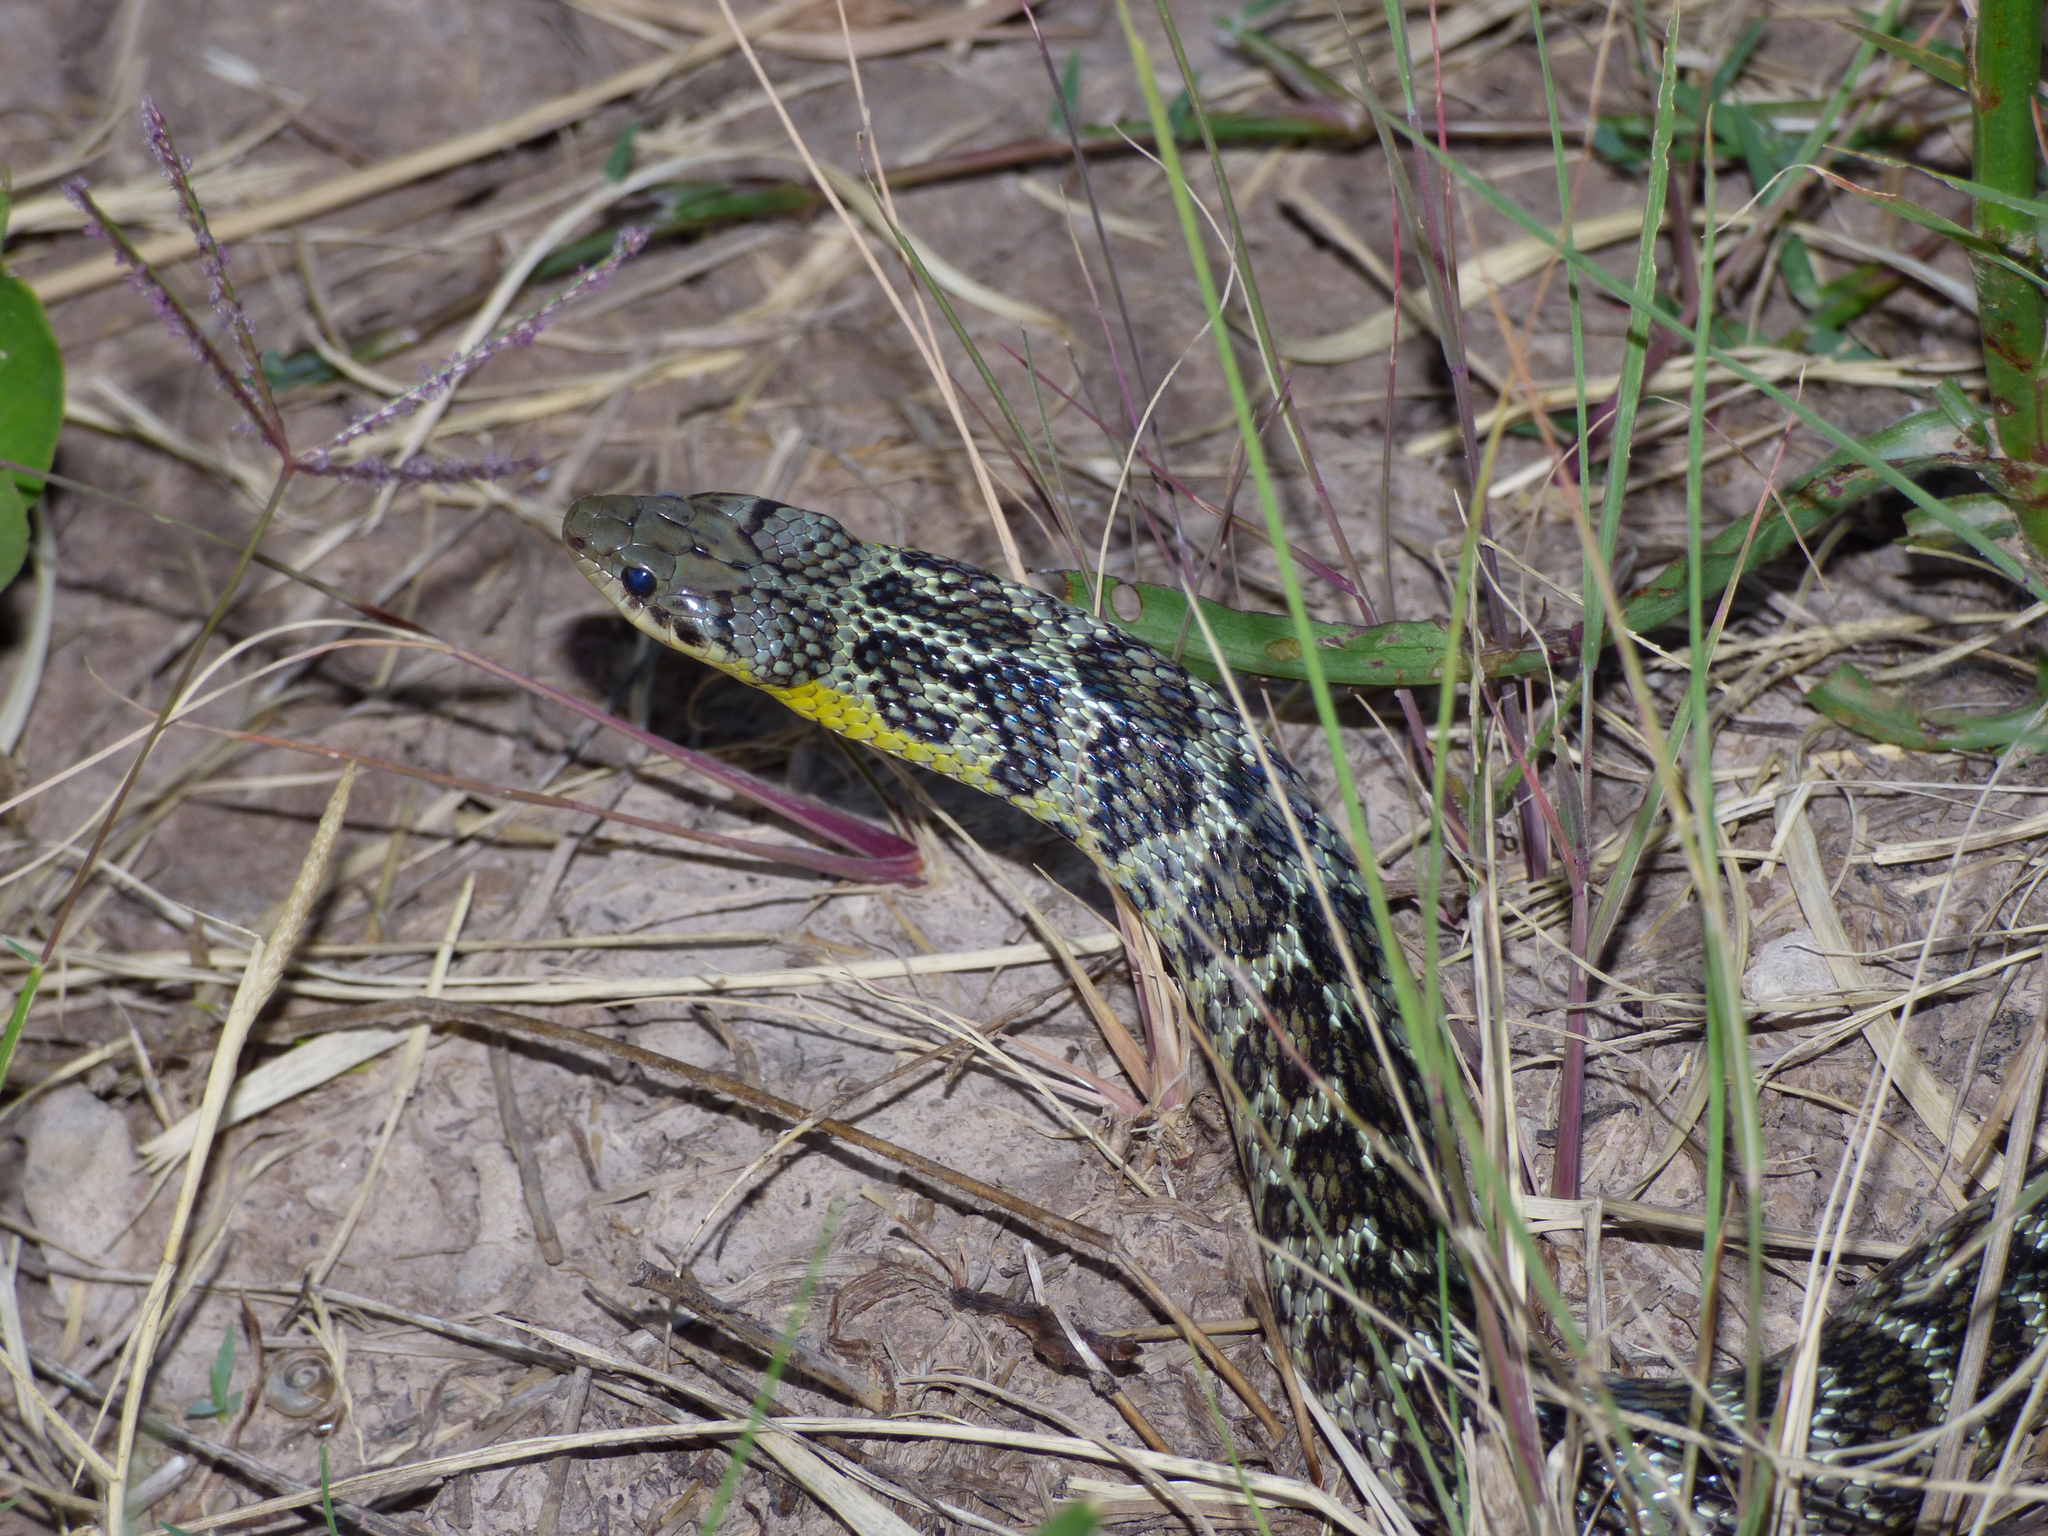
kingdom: Animalia
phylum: Chordata
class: Squamata
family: Colubridae
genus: Erythrolamprus
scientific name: Erythrolamprus poecilogyrus
